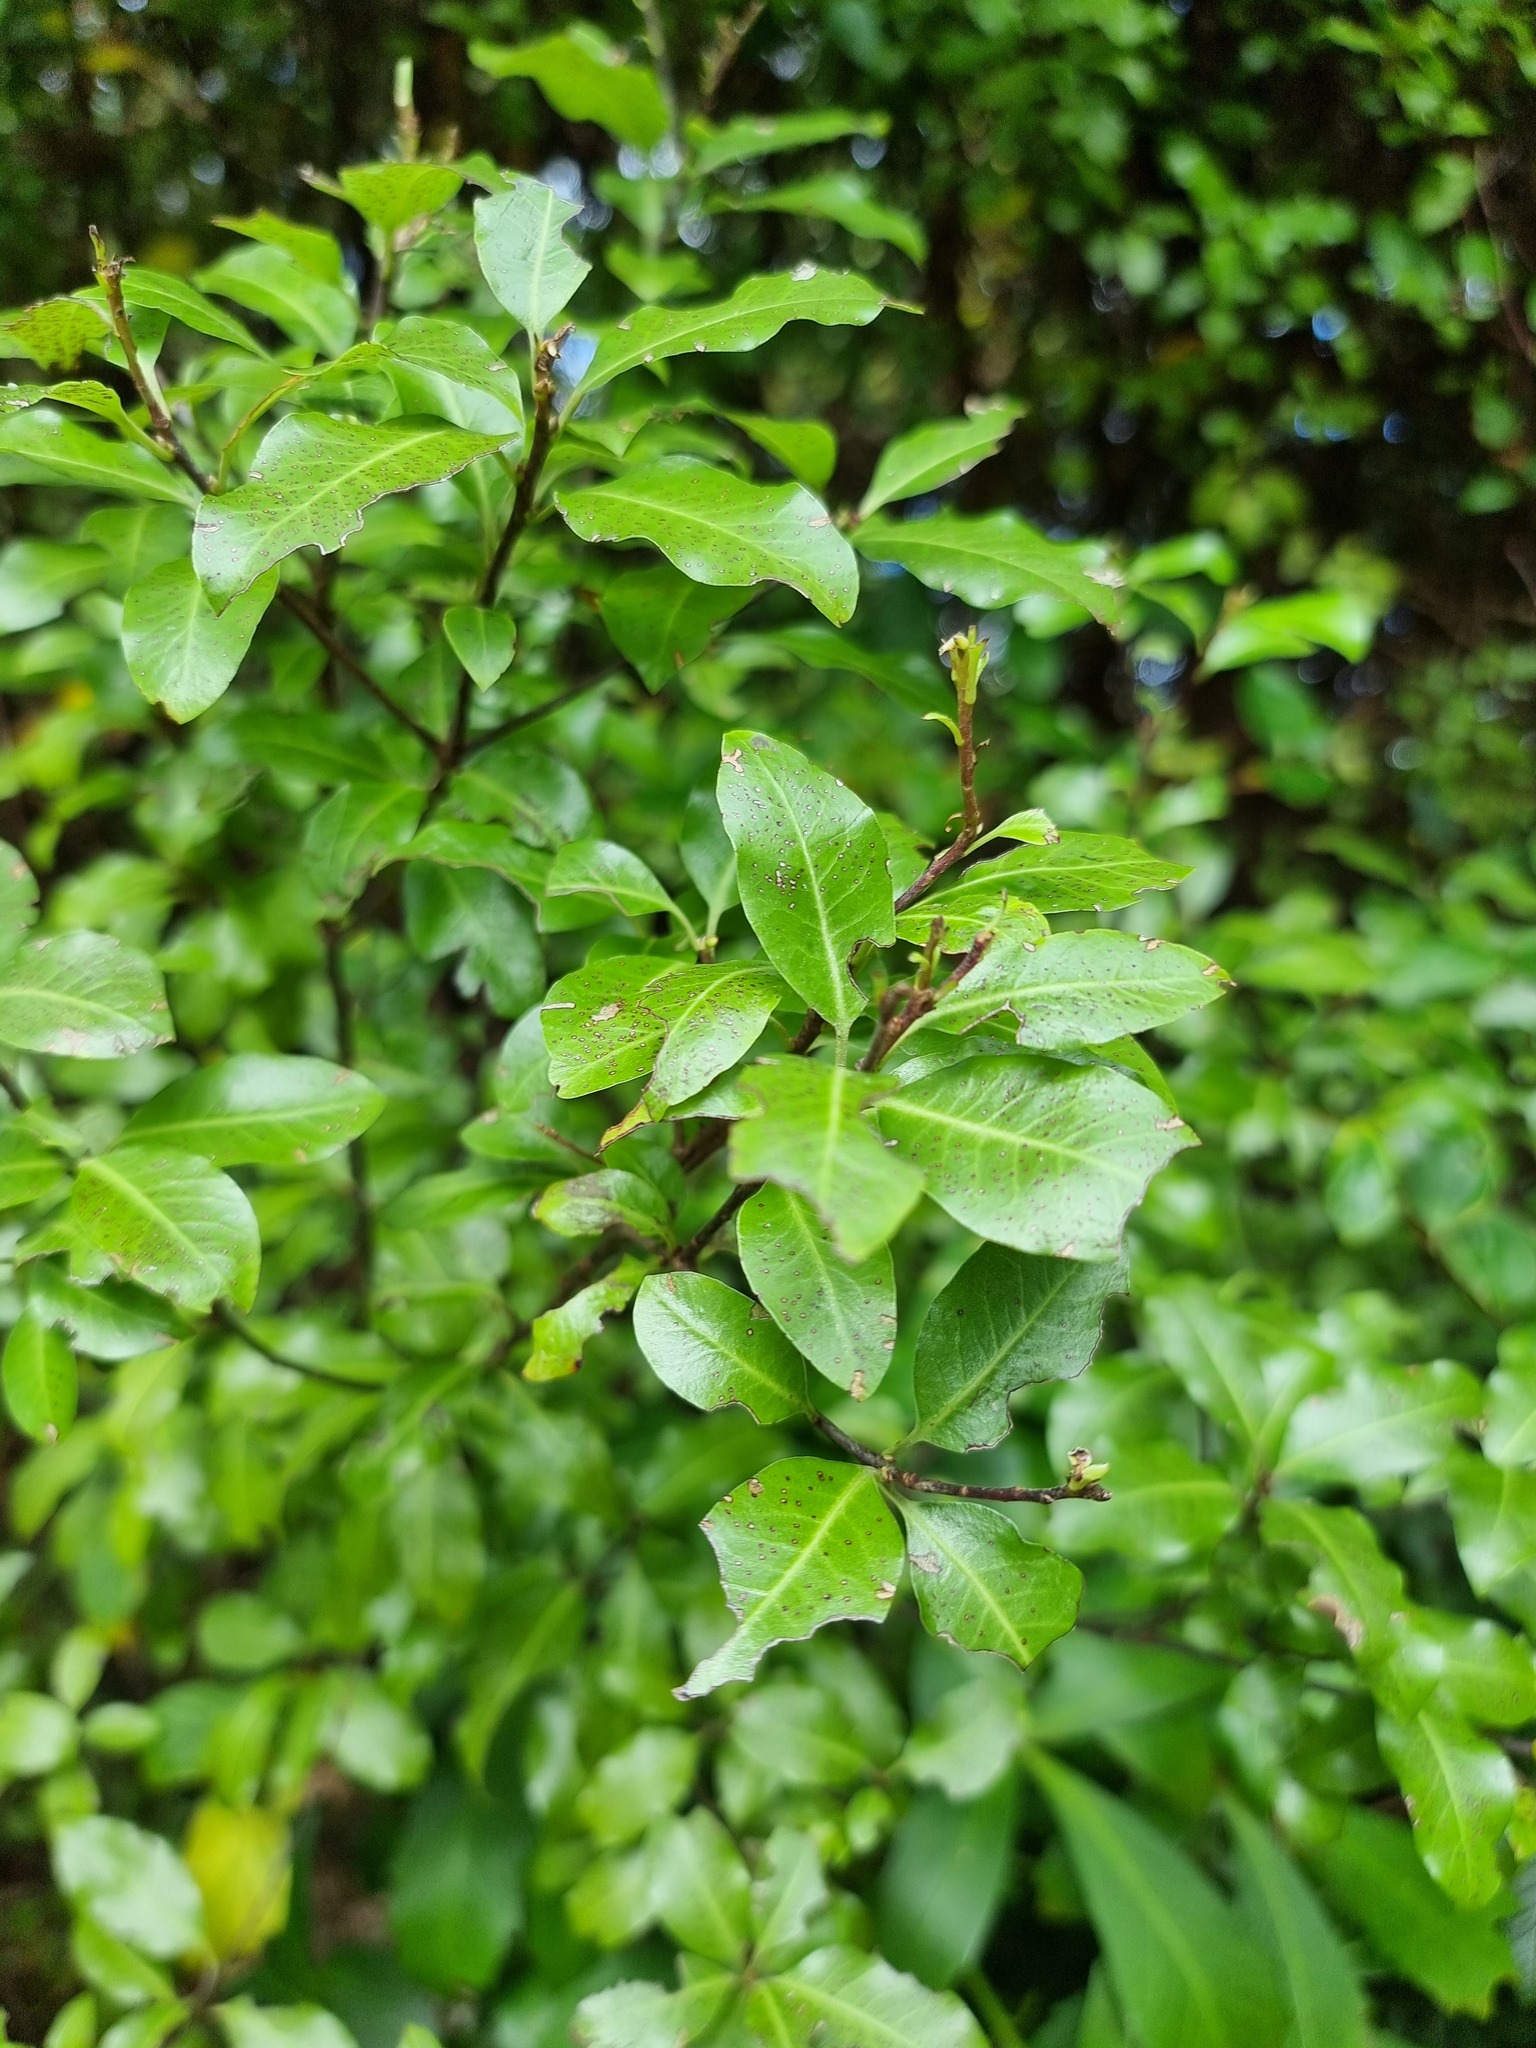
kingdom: Plantae
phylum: Tracheophyta
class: Magnoliopsida
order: Apiales
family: Pittosporaceae
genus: Pittosporum
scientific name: Pittosporum tenuifolium
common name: Kohuhu
